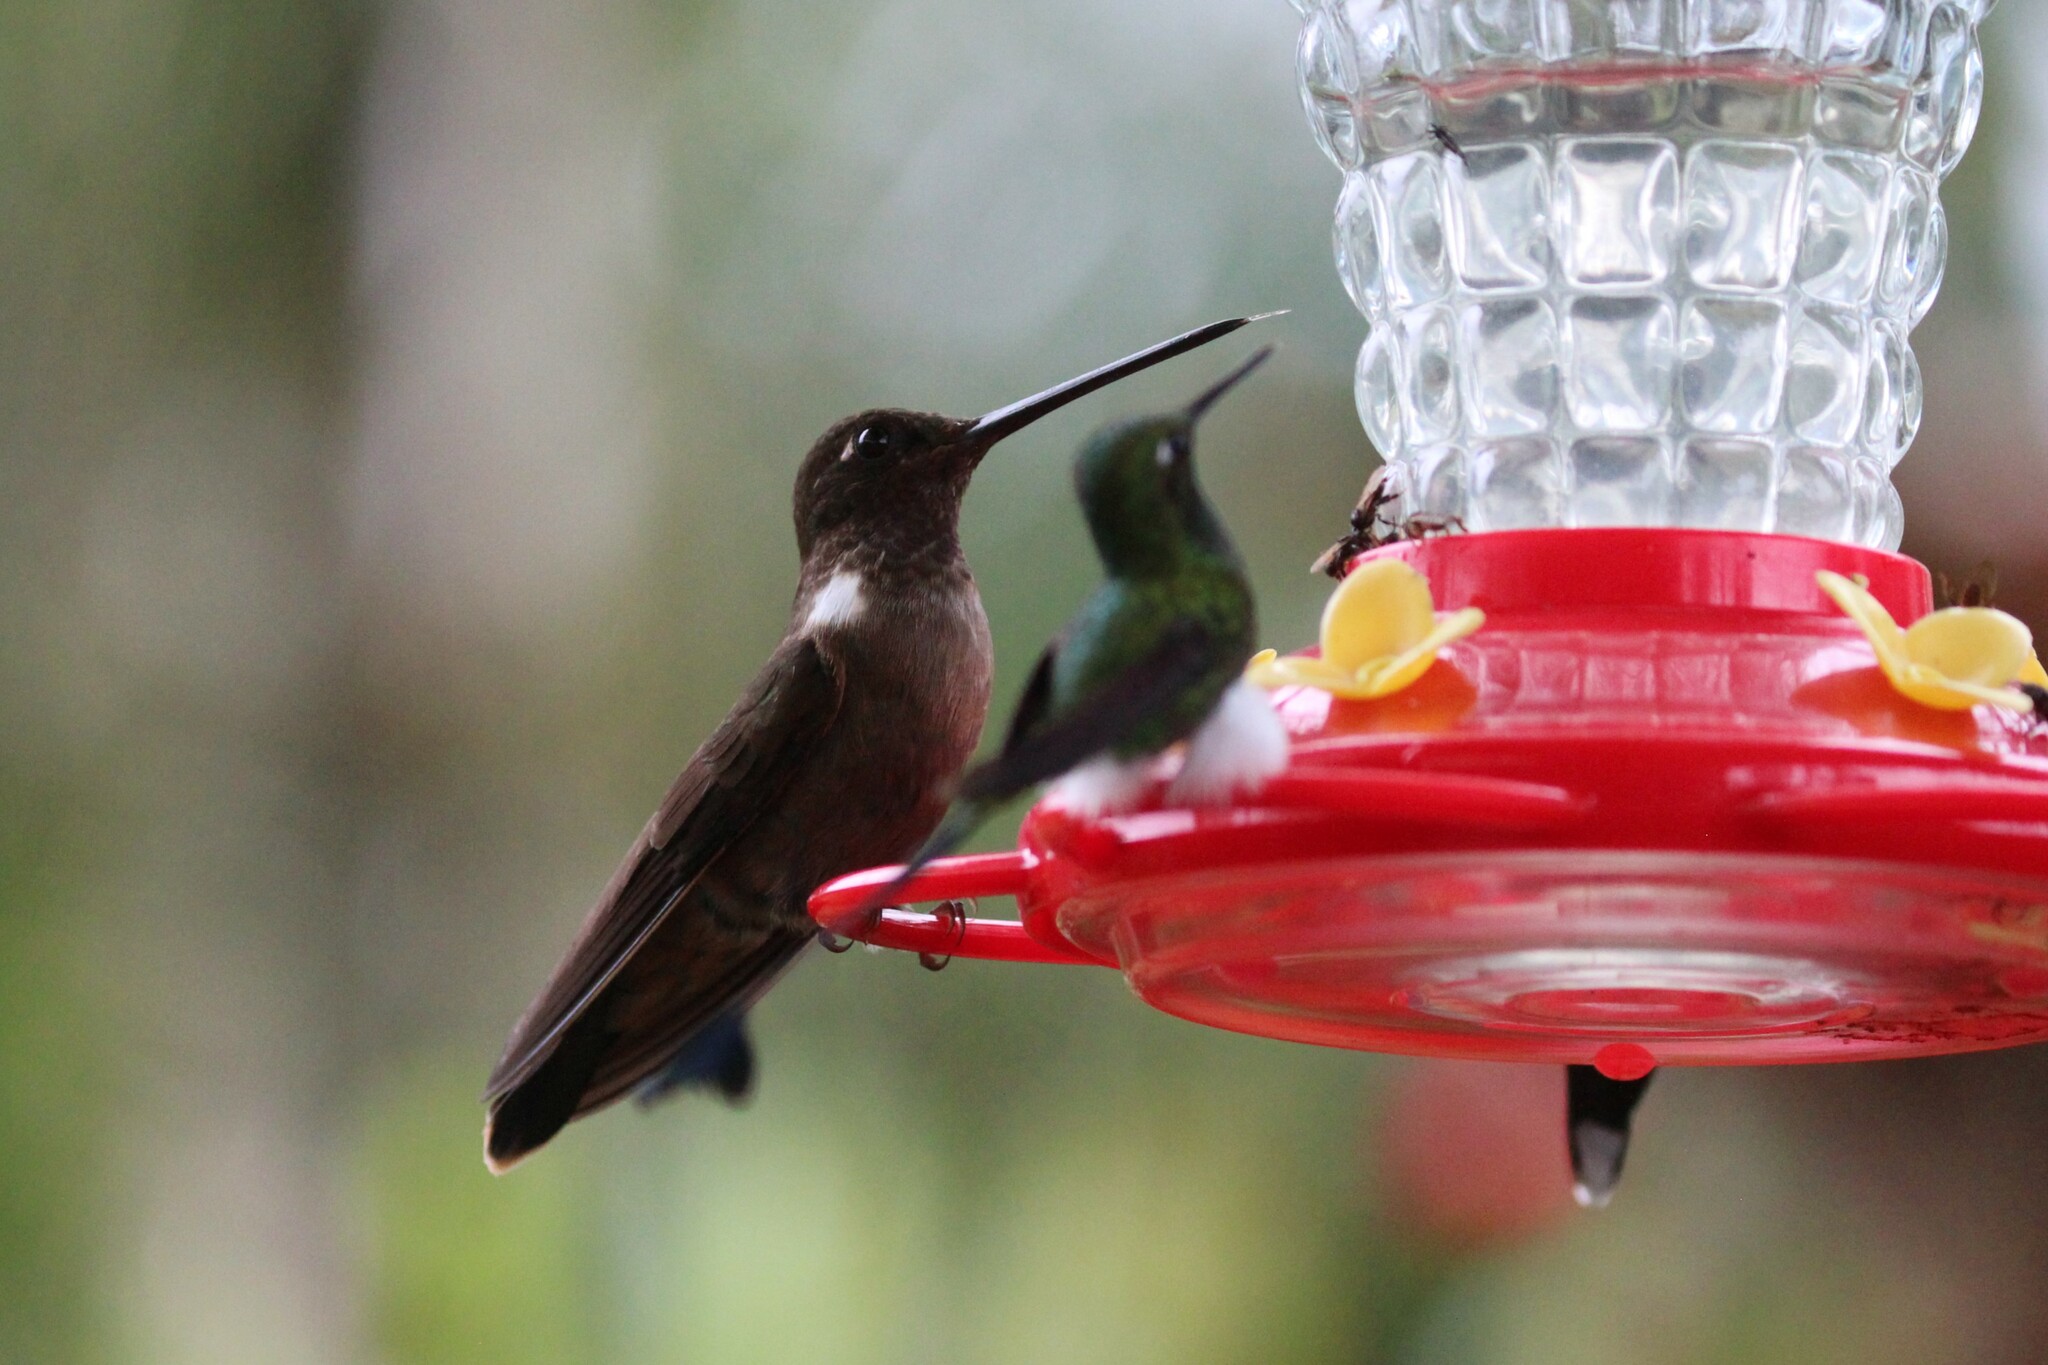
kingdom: Animalia
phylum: Chordata
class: Aves
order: Apodiformes
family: Trochilidae
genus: Coeligena
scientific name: Coeligena wilsoni
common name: Brown inca
